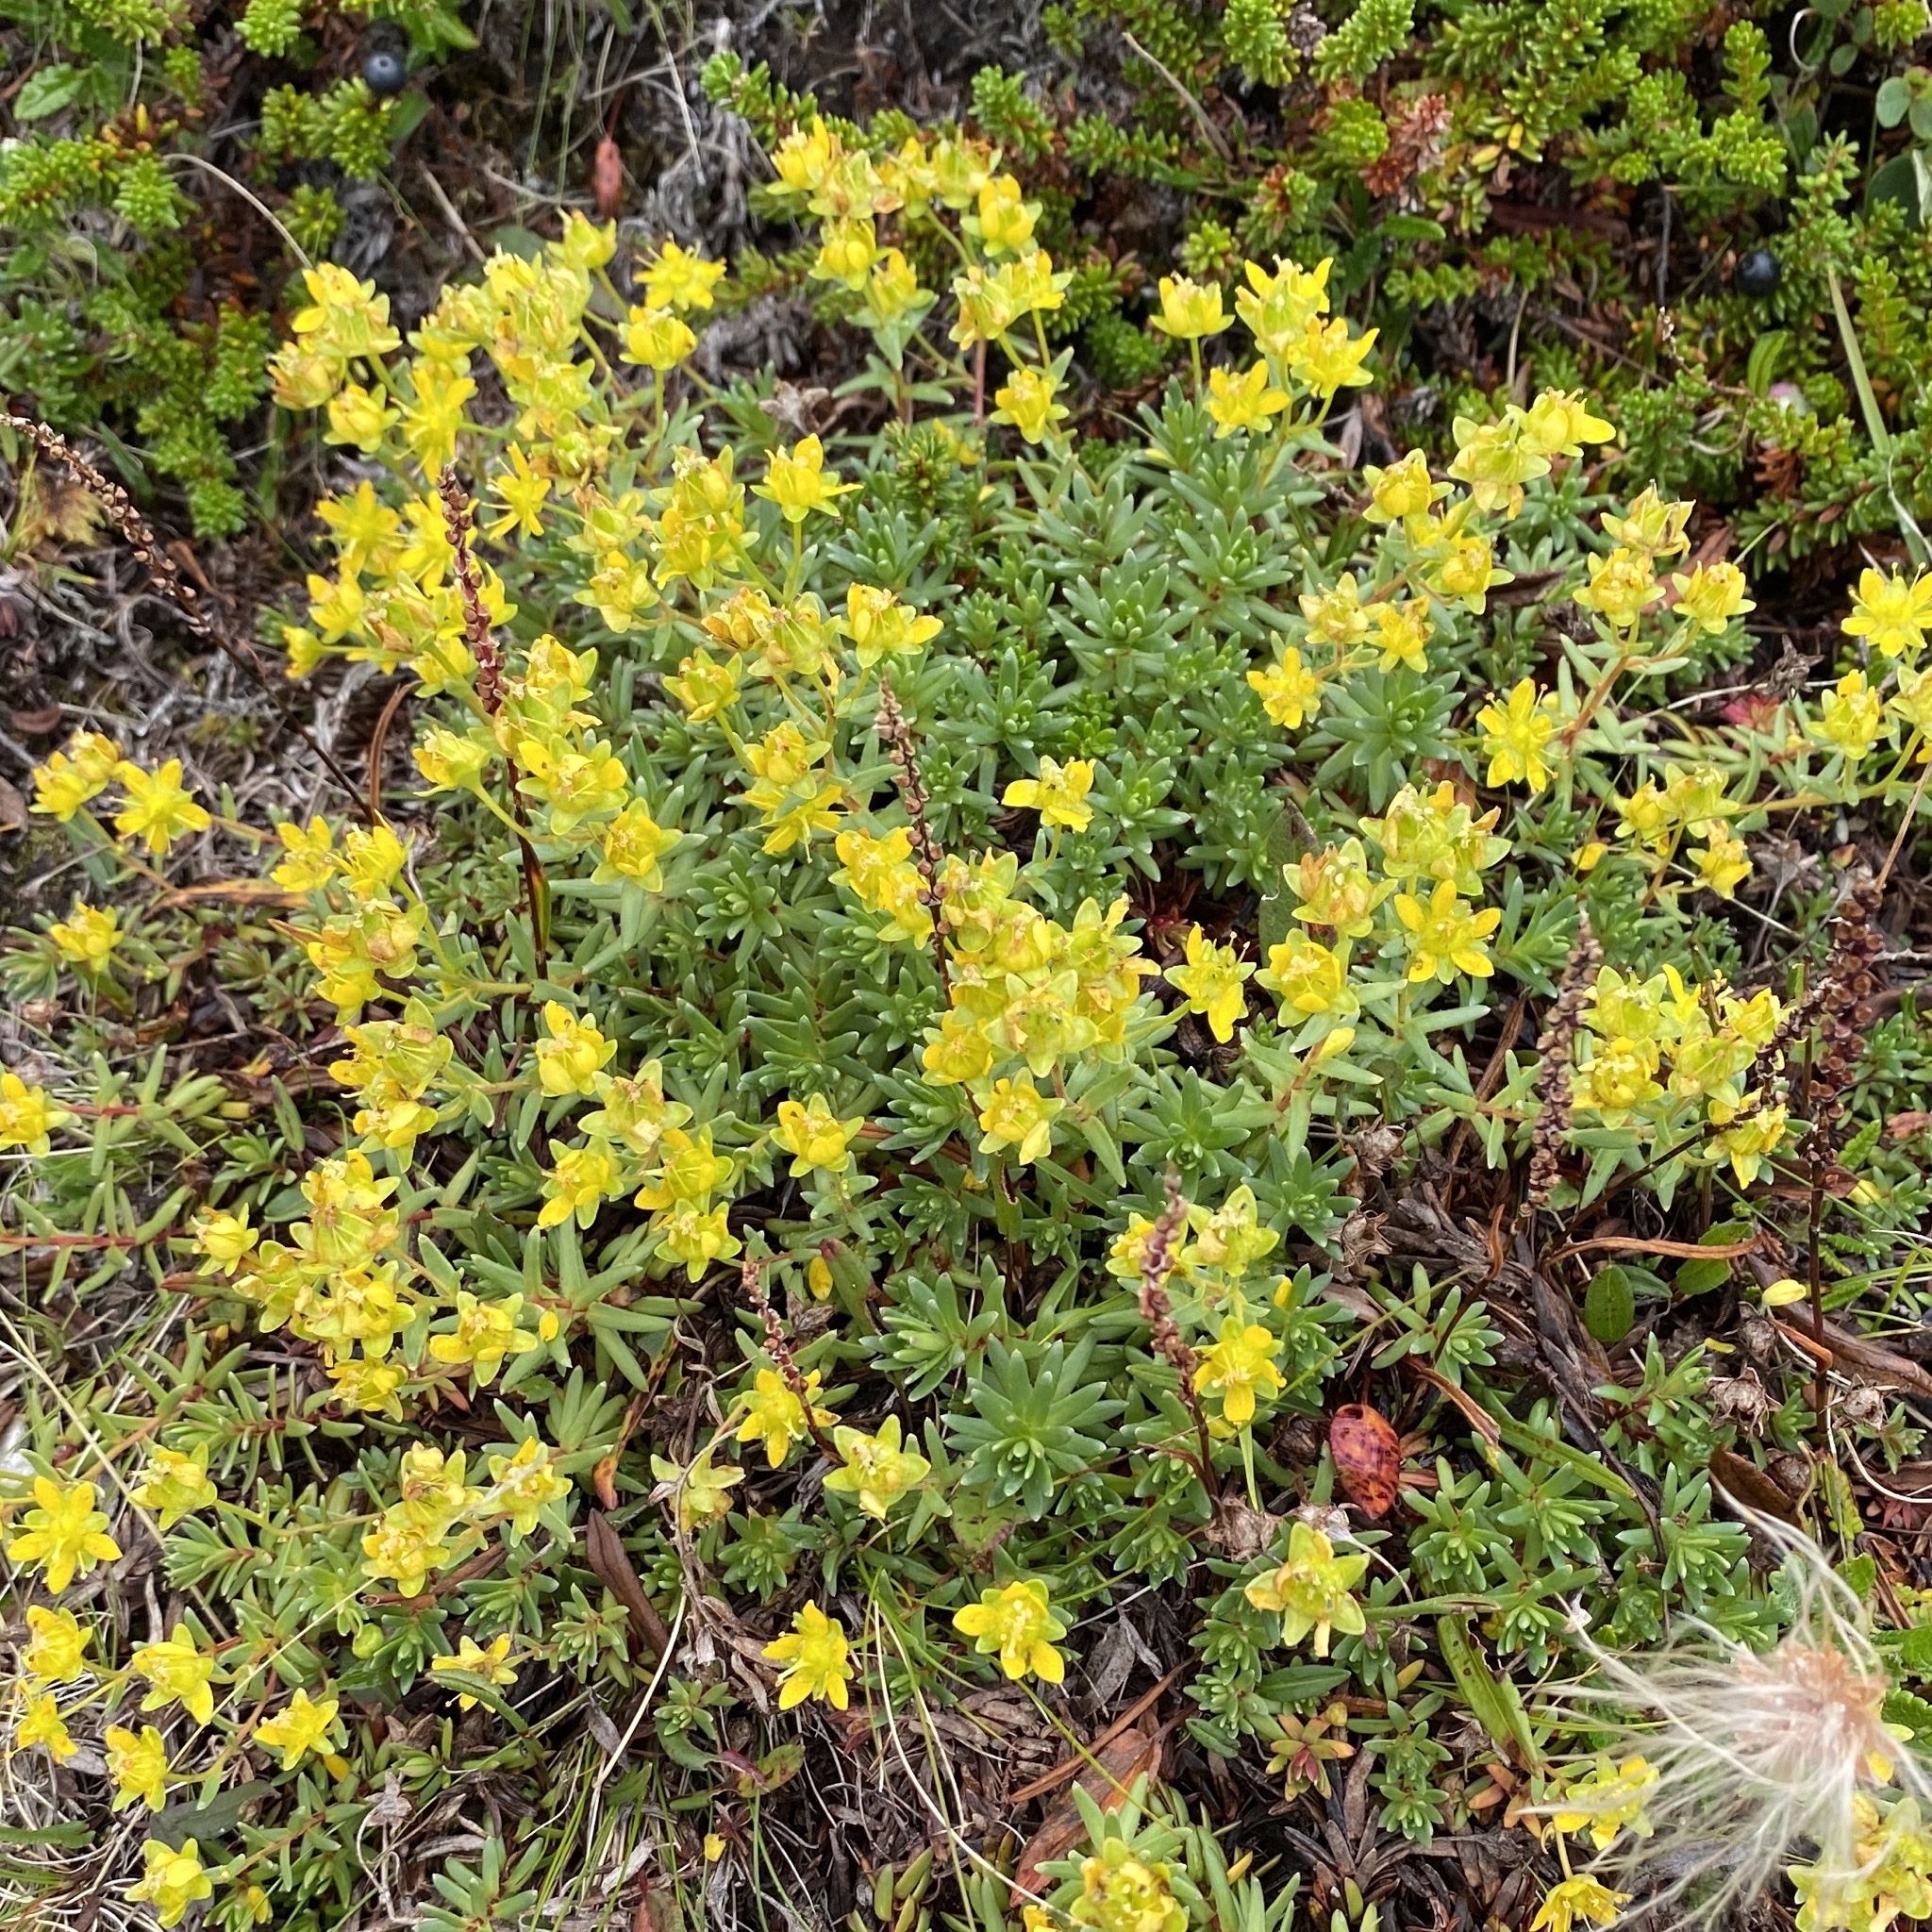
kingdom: Plantae
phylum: Tracheophyta
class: Magnoliopsida
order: Saxifragales
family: Saxifragaceae
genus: Saxifraga
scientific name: Saxifraga aizoides
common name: Yellow mountain saxifrage
